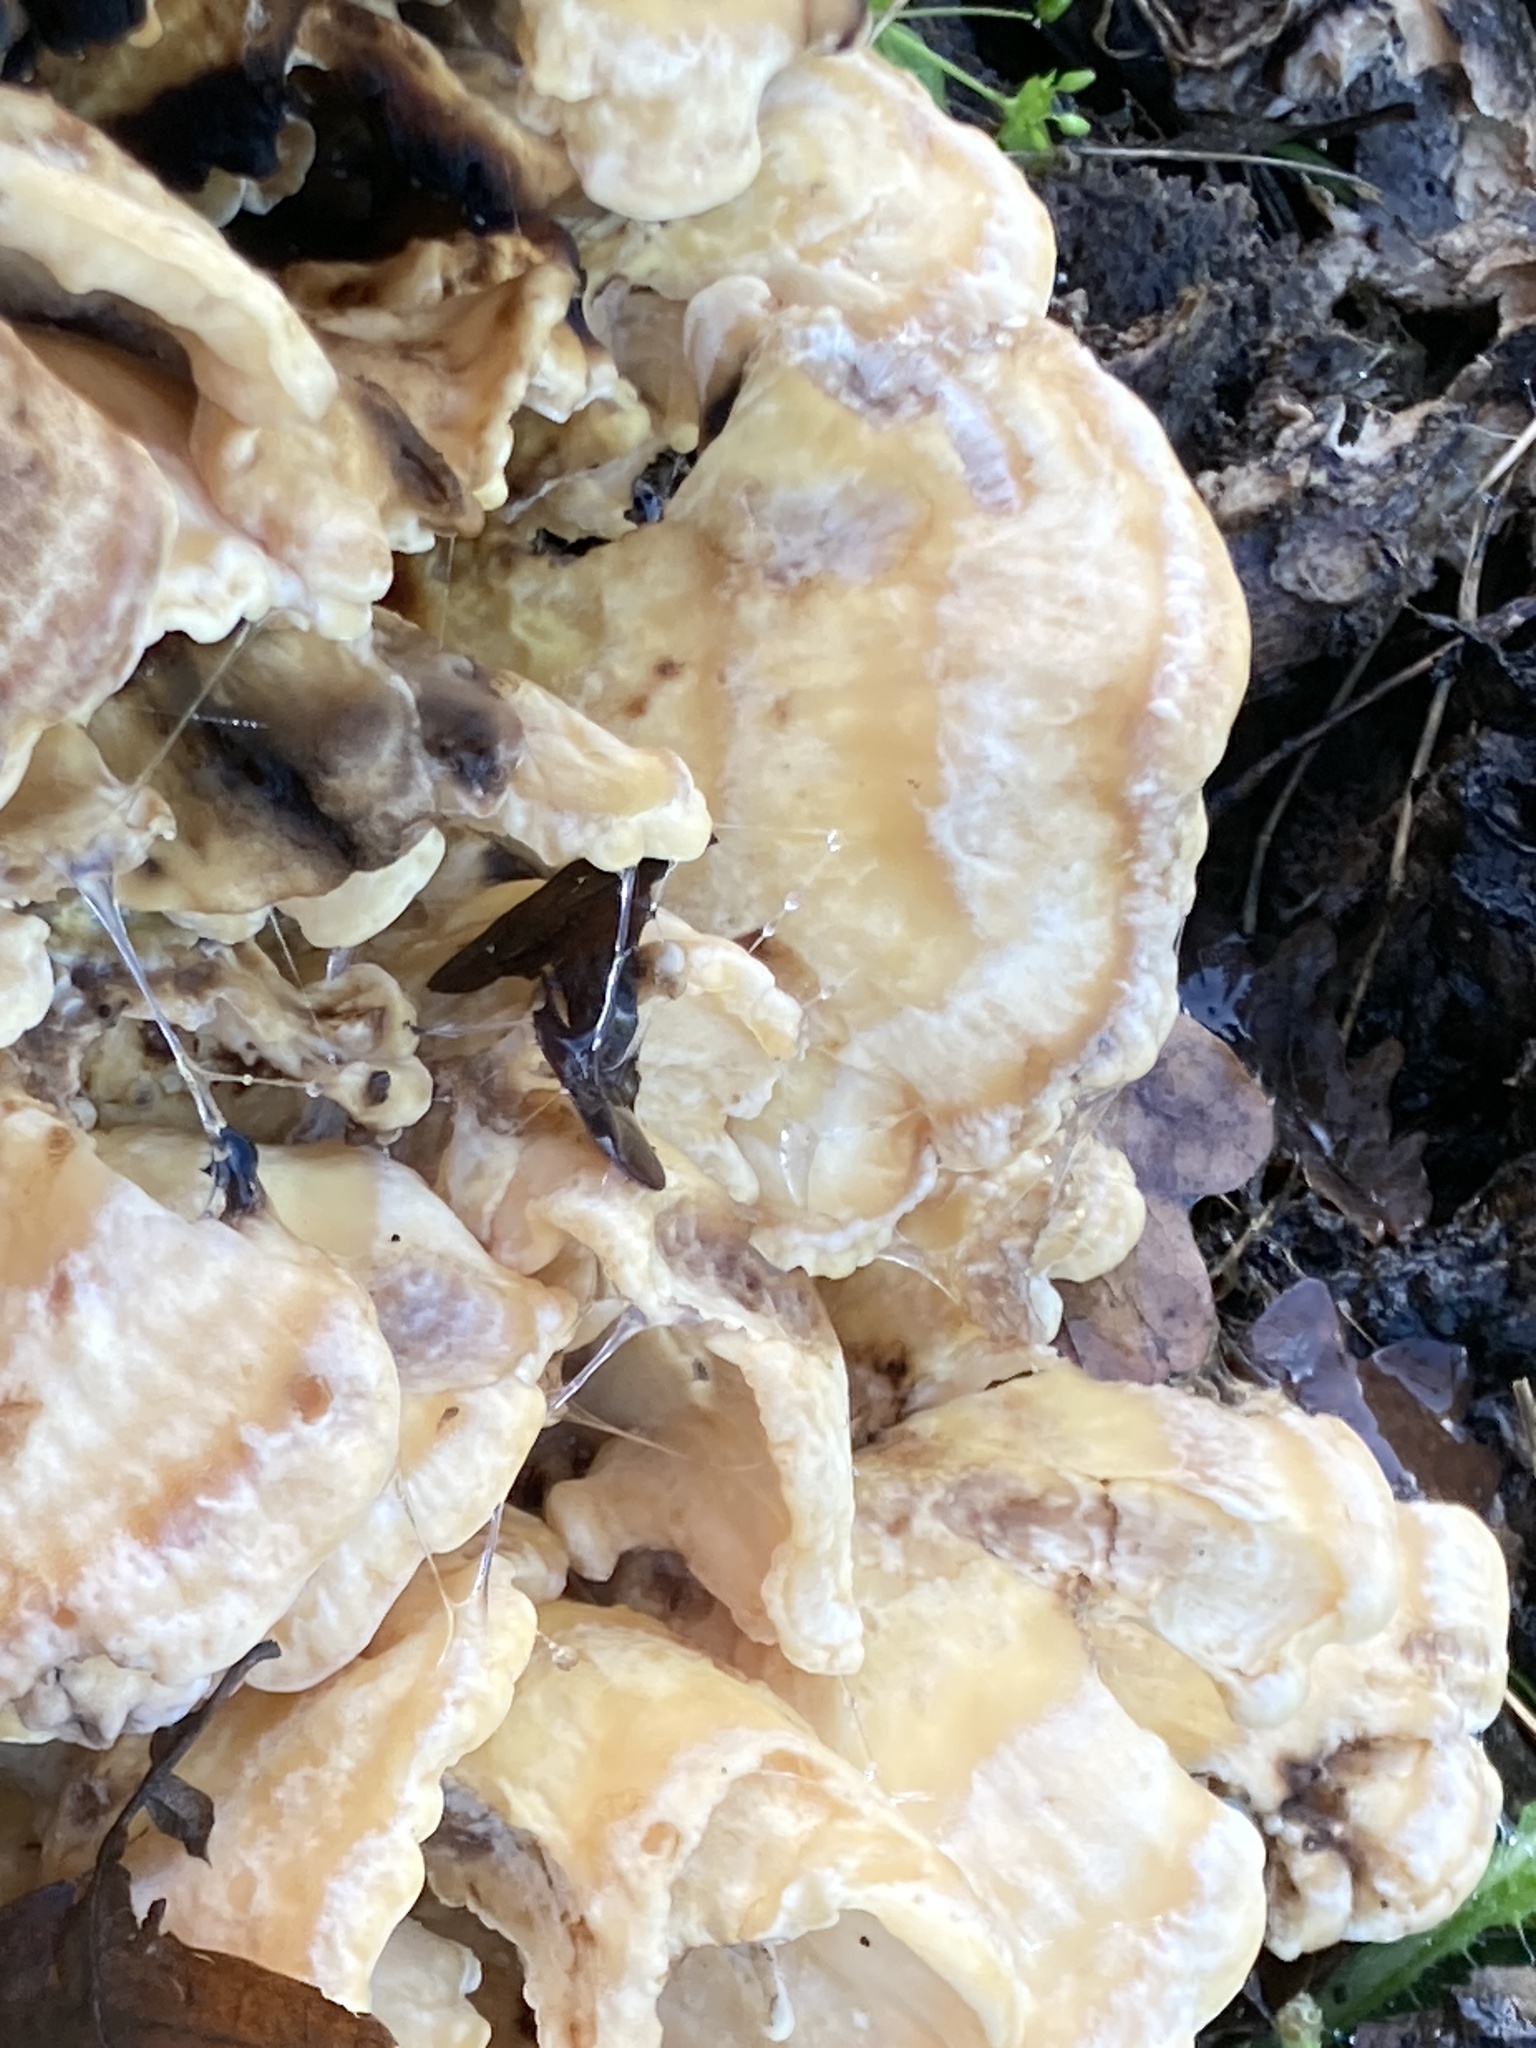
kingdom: Fungi
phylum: Basidiomycota
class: Agaricomycetes
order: Polyporales
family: Laetiporaceae
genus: Laetiporus
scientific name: Laetiporus sulphureus
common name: Chicken of the woods
